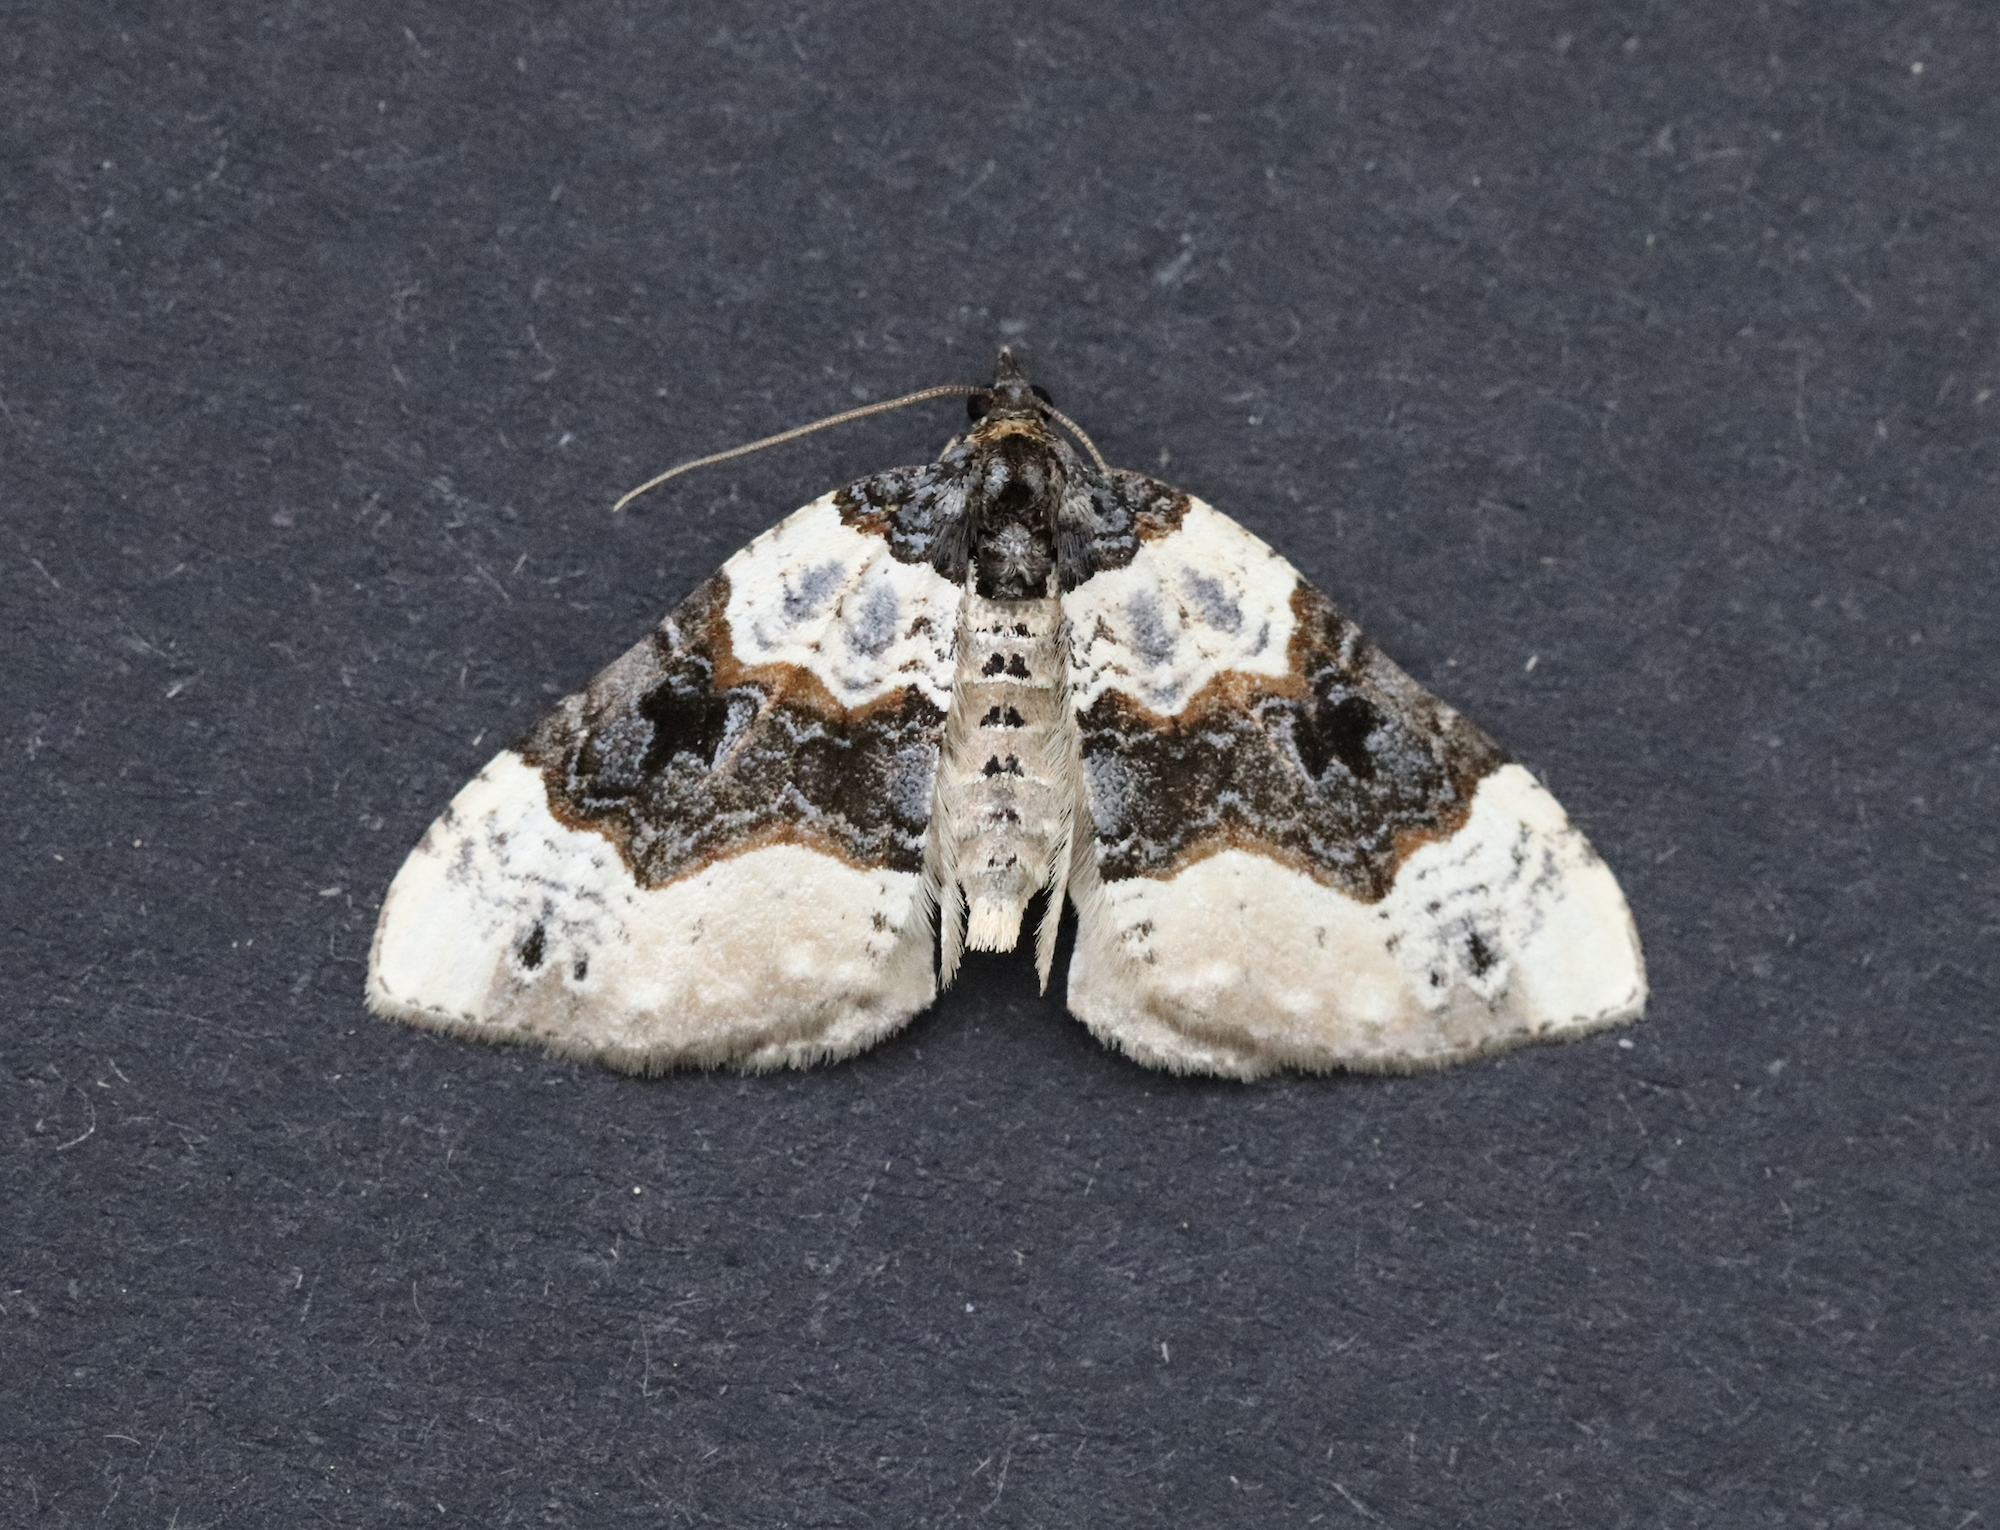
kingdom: Animalia
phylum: Arthropoda
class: Insecta
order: Lepidoptera
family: Geometridae
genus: Cosmorhoe
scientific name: Cosmorhoe ocellata
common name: Purple bar
